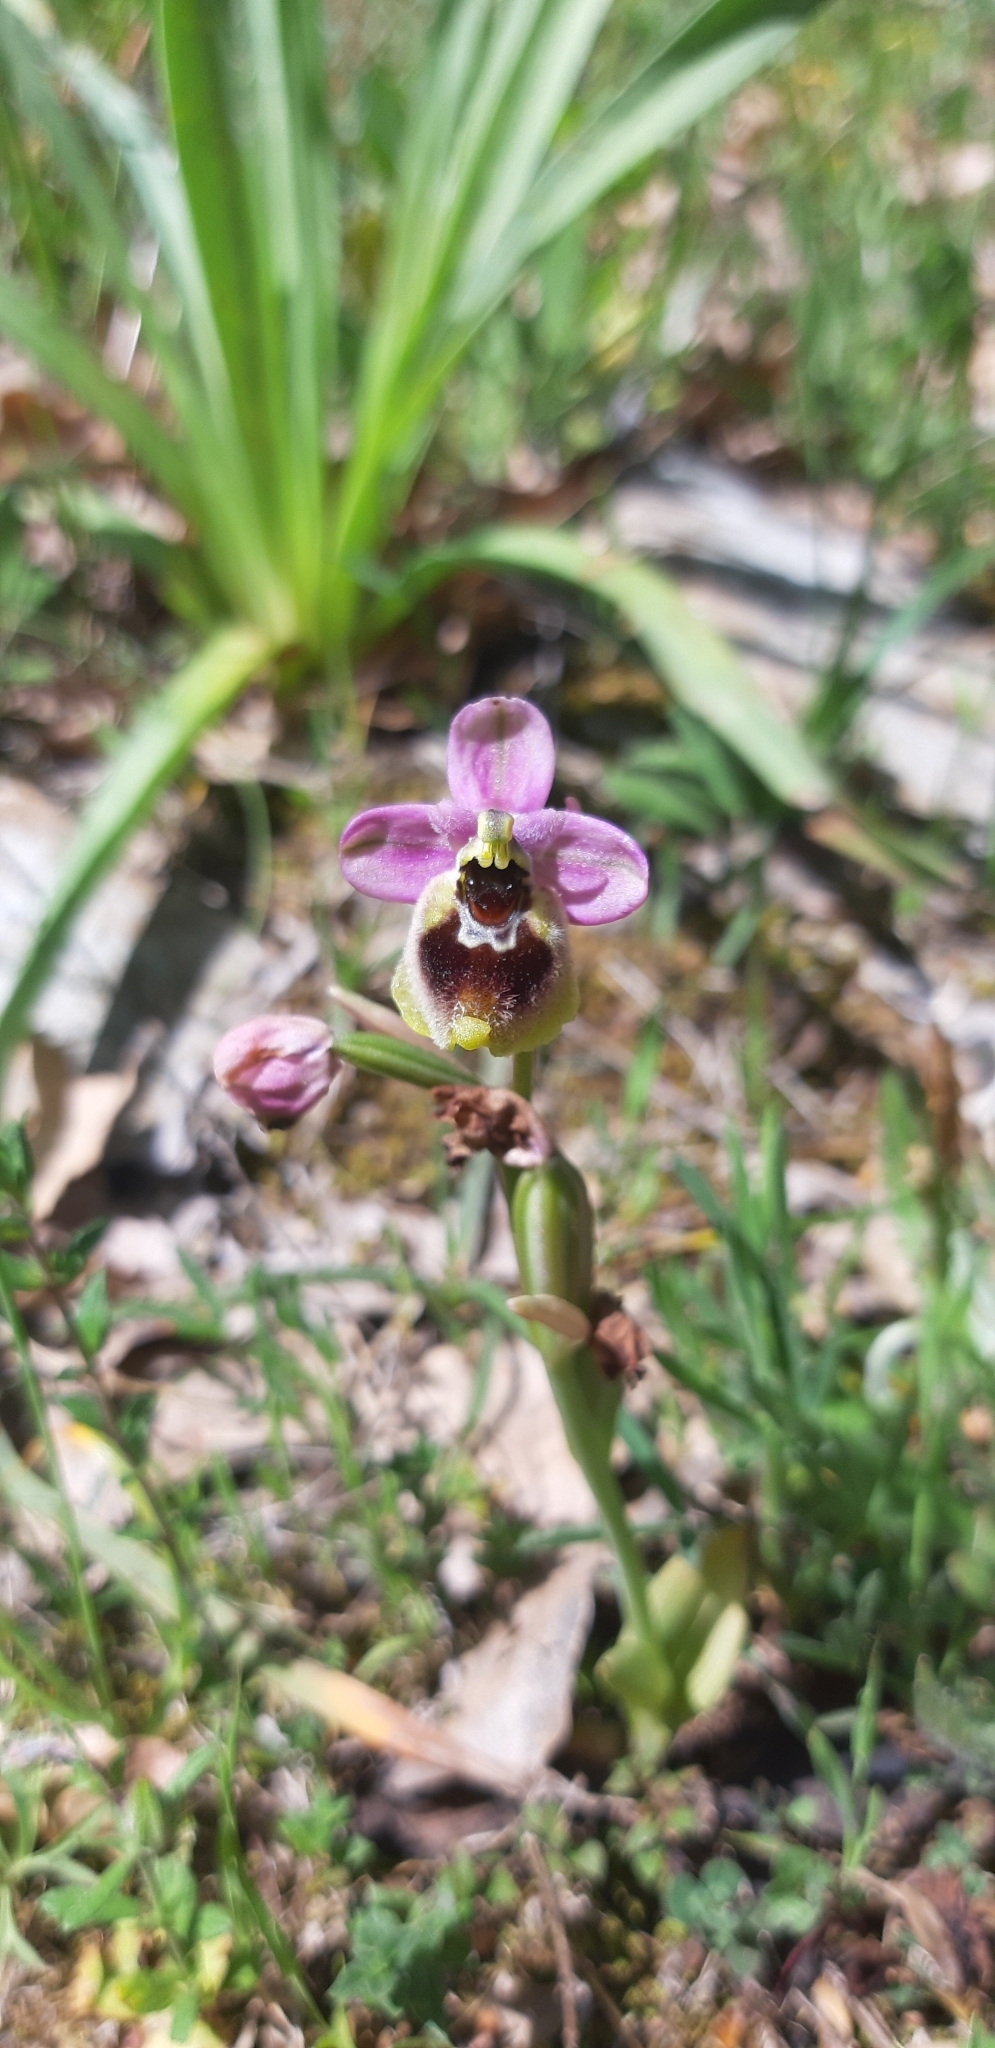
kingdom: Plantae
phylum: Tracheophyta
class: Liliopsida
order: Asparagales
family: Orchidaceae
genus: Ophrys
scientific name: Ophrys tenthredinifera
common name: Sawfly orchid
